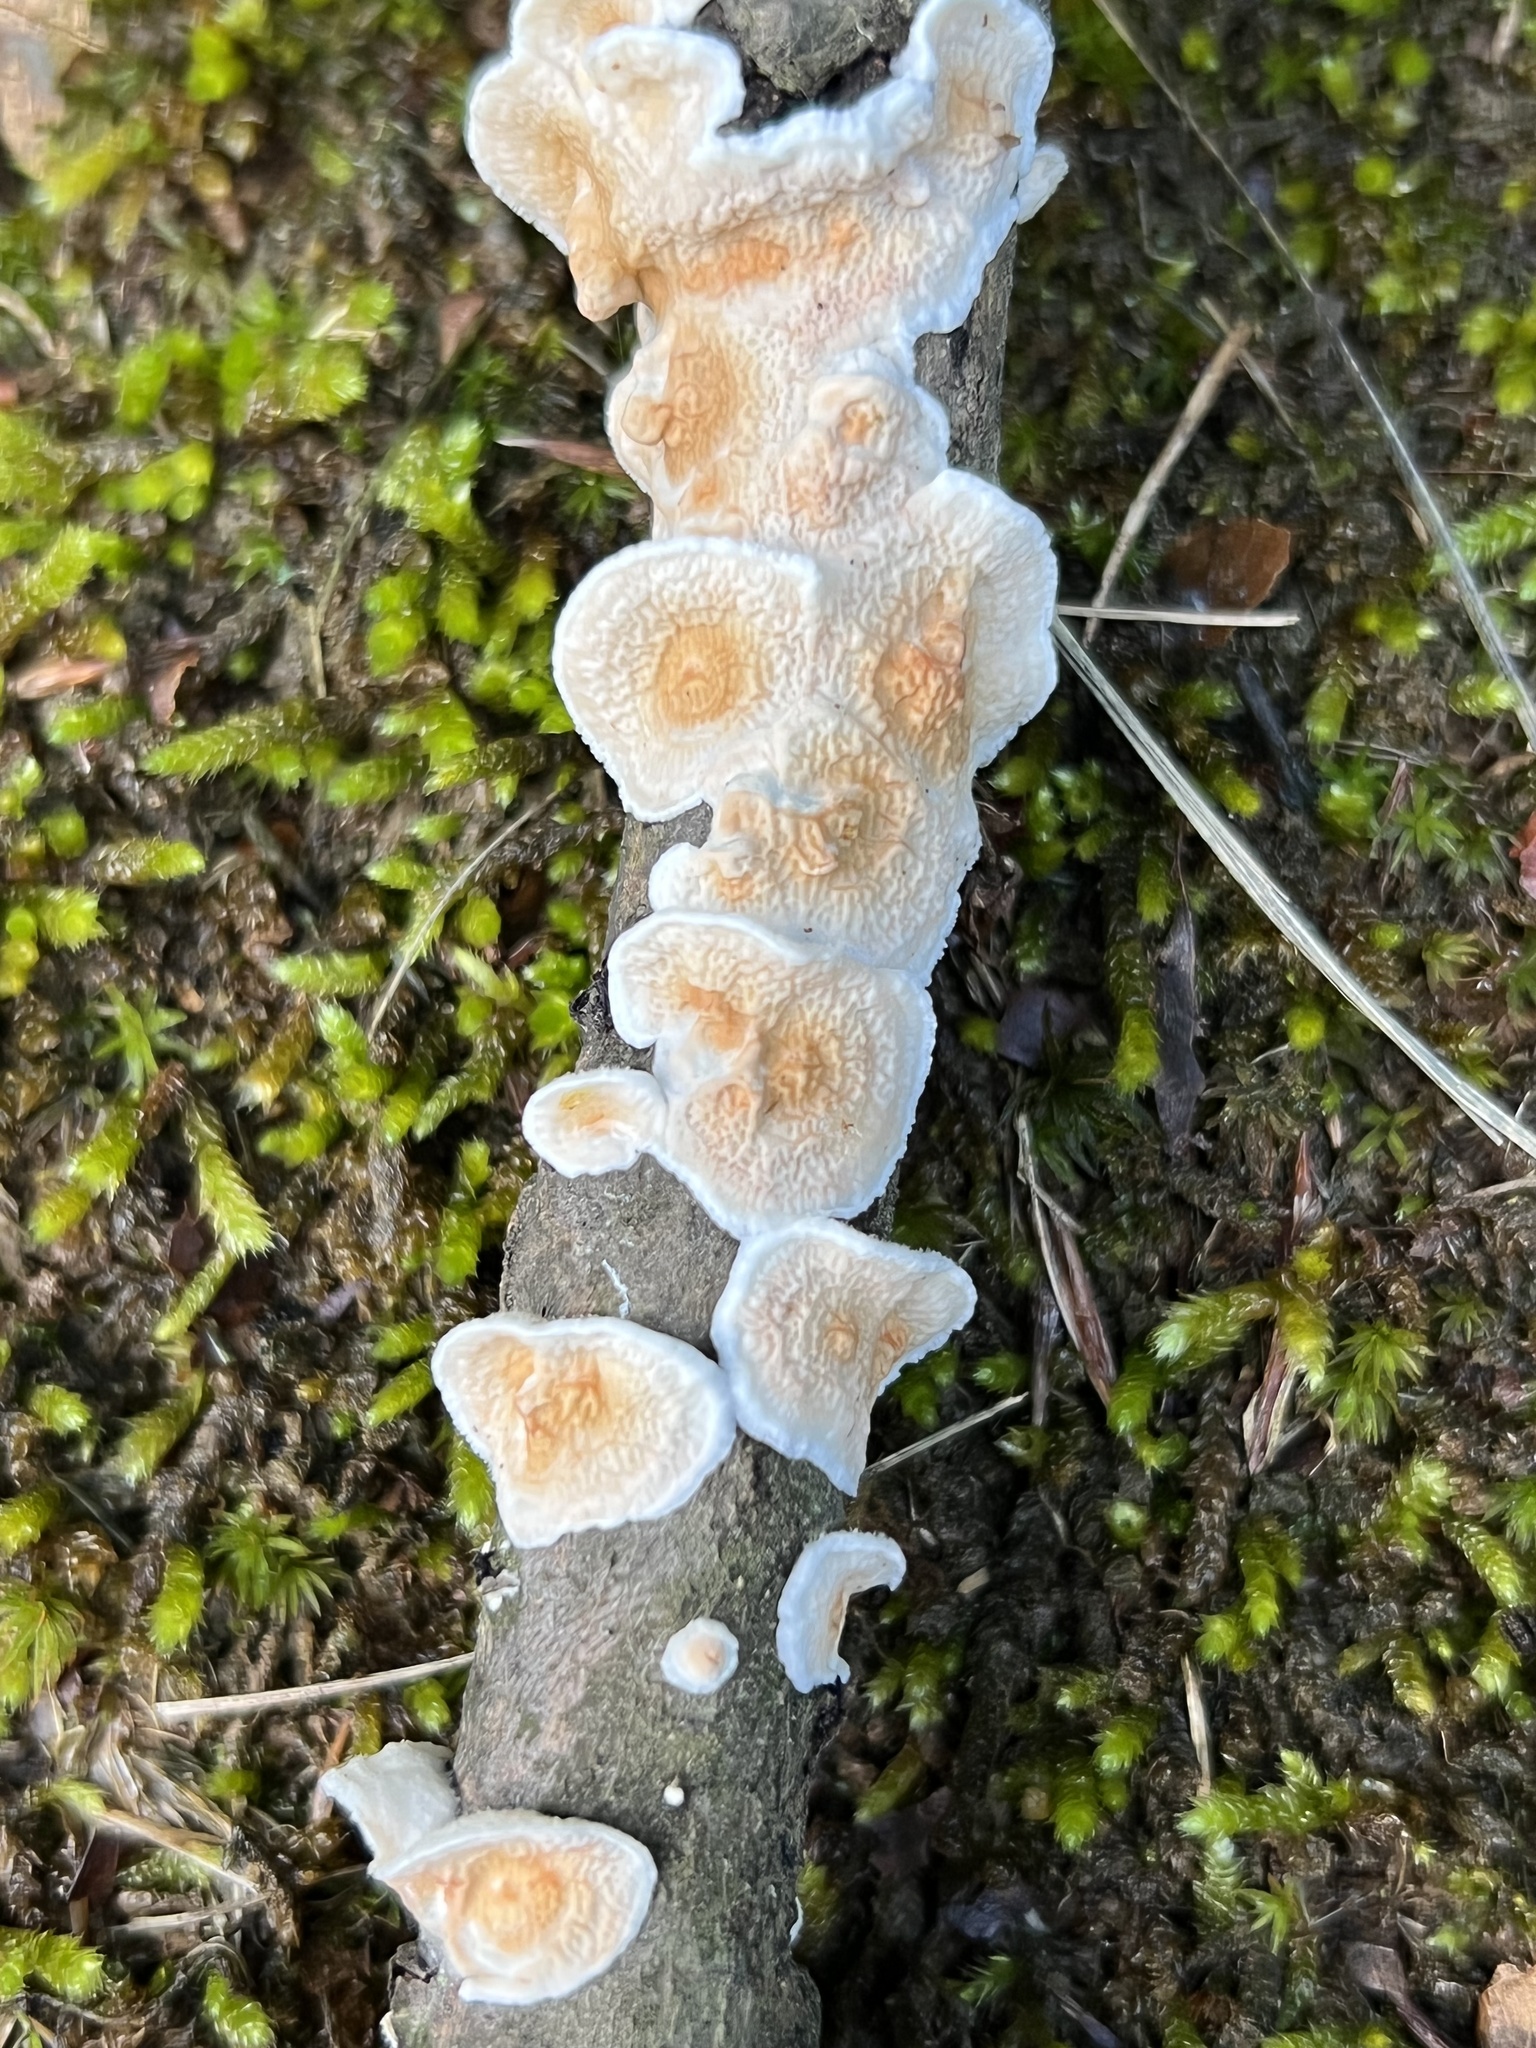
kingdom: Fungi
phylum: Basidiomycota
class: Agaricomycetes
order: Polyporales
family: Irpicaceae
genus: Byssomerulius
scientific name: Byssomerulius corium
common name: Netted crust
